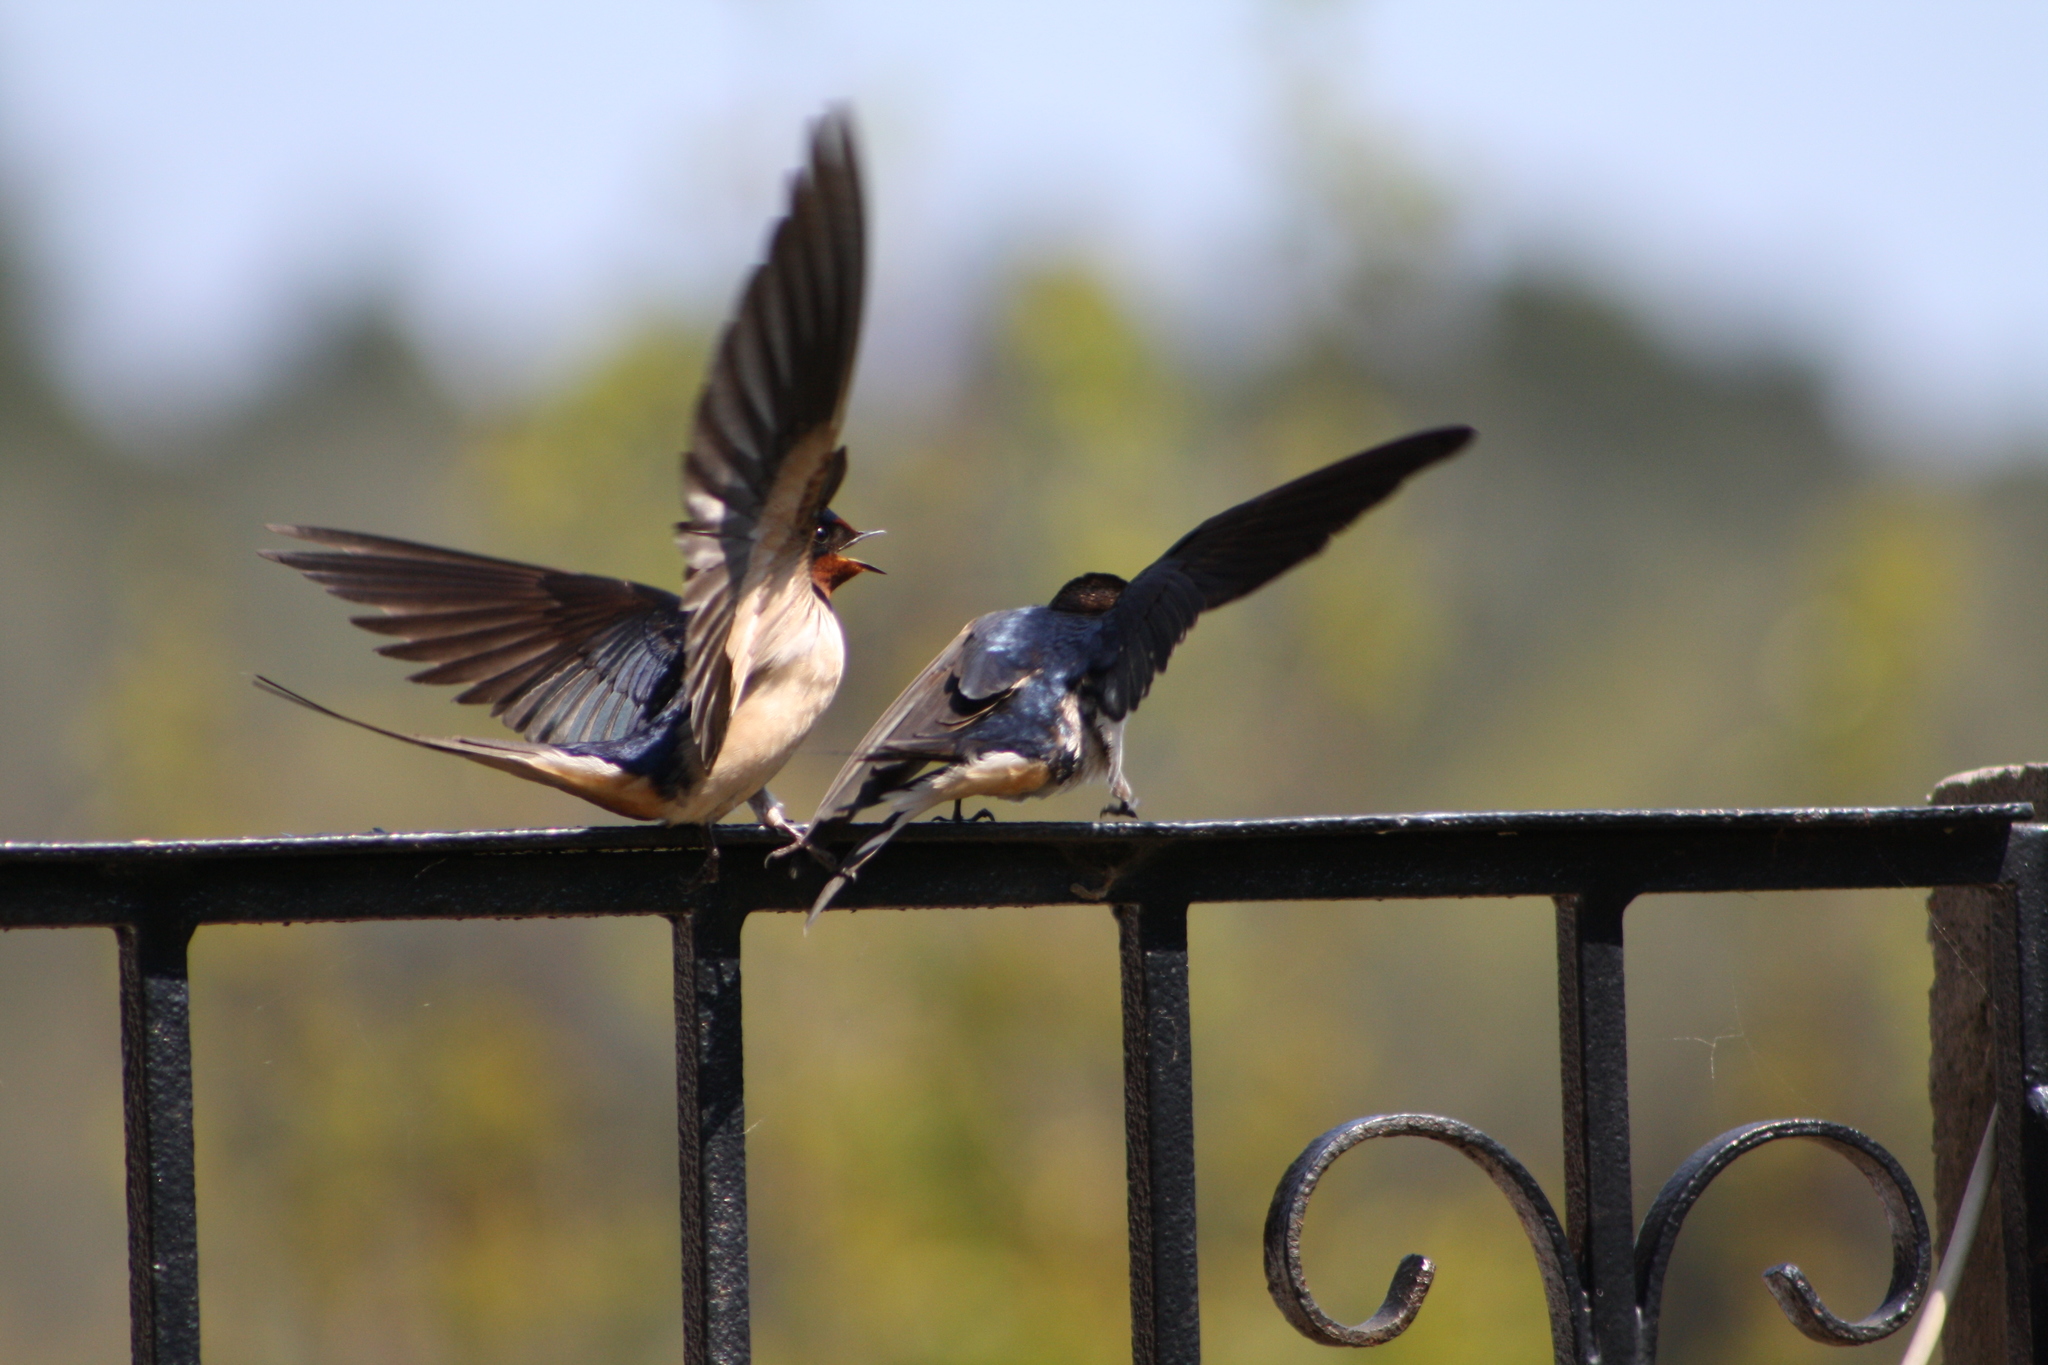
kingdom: Animalia
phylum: Chordata
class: Aves
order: Passeriformes
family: Hirundinidae
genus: Hirundo
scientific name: Hirundo rustica
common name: Barn swallow
